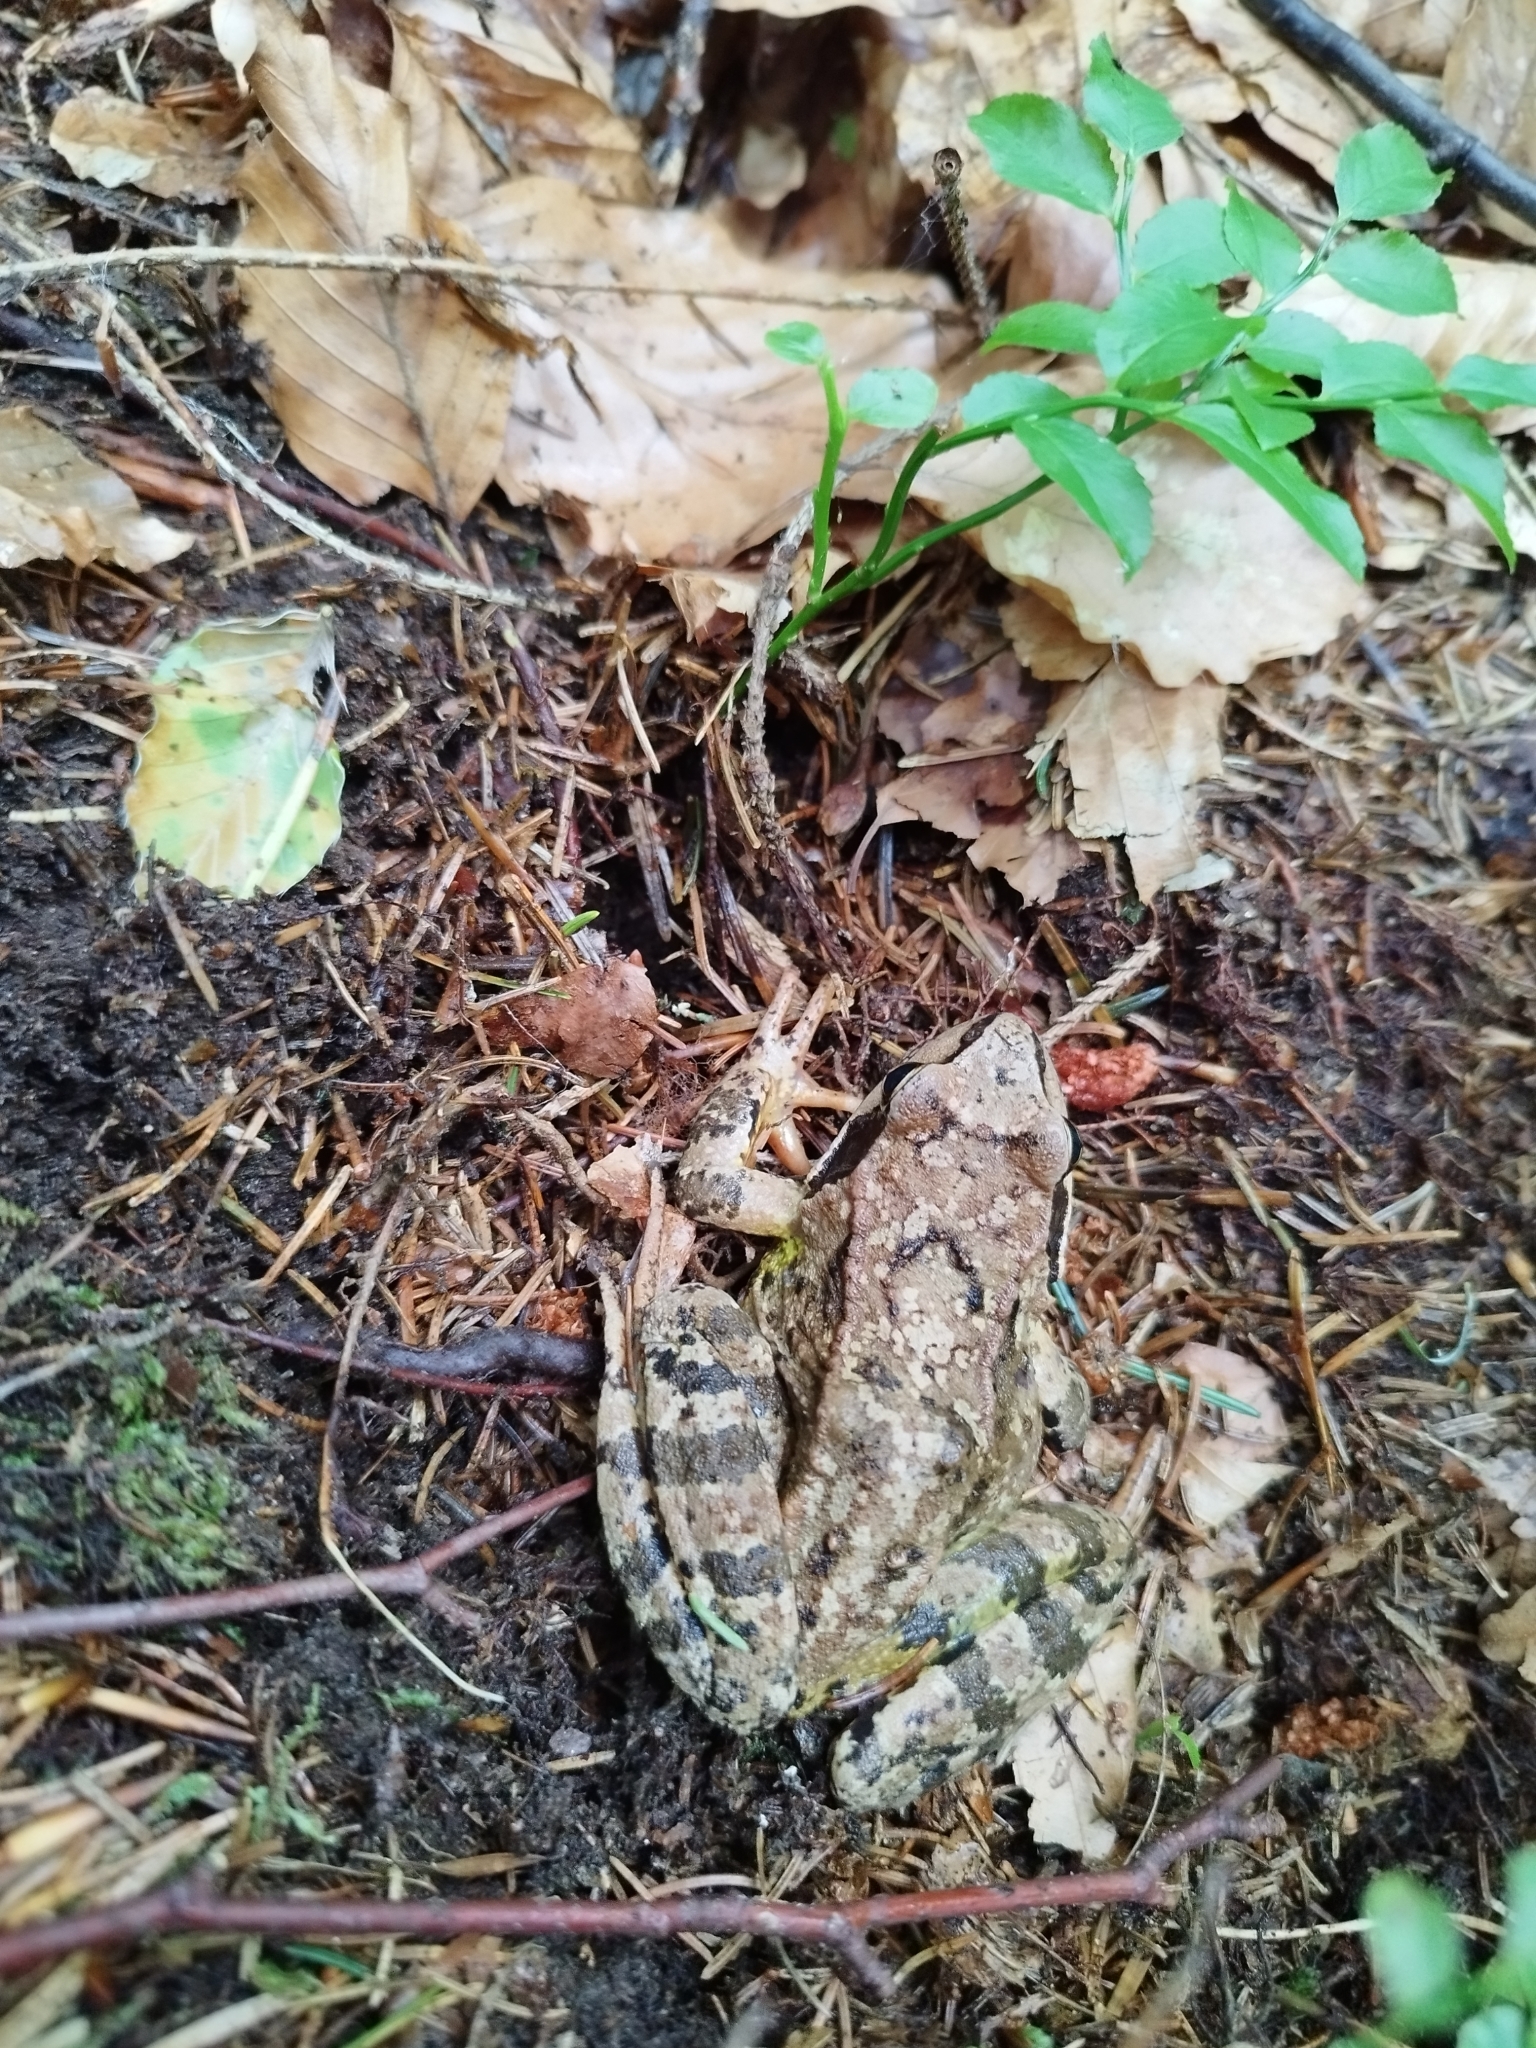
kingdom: Animalia
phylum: Chordata
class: Amphibia
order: Anura
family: Ranidae
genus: Rana
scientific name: Rana temporaria
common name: Common frog
